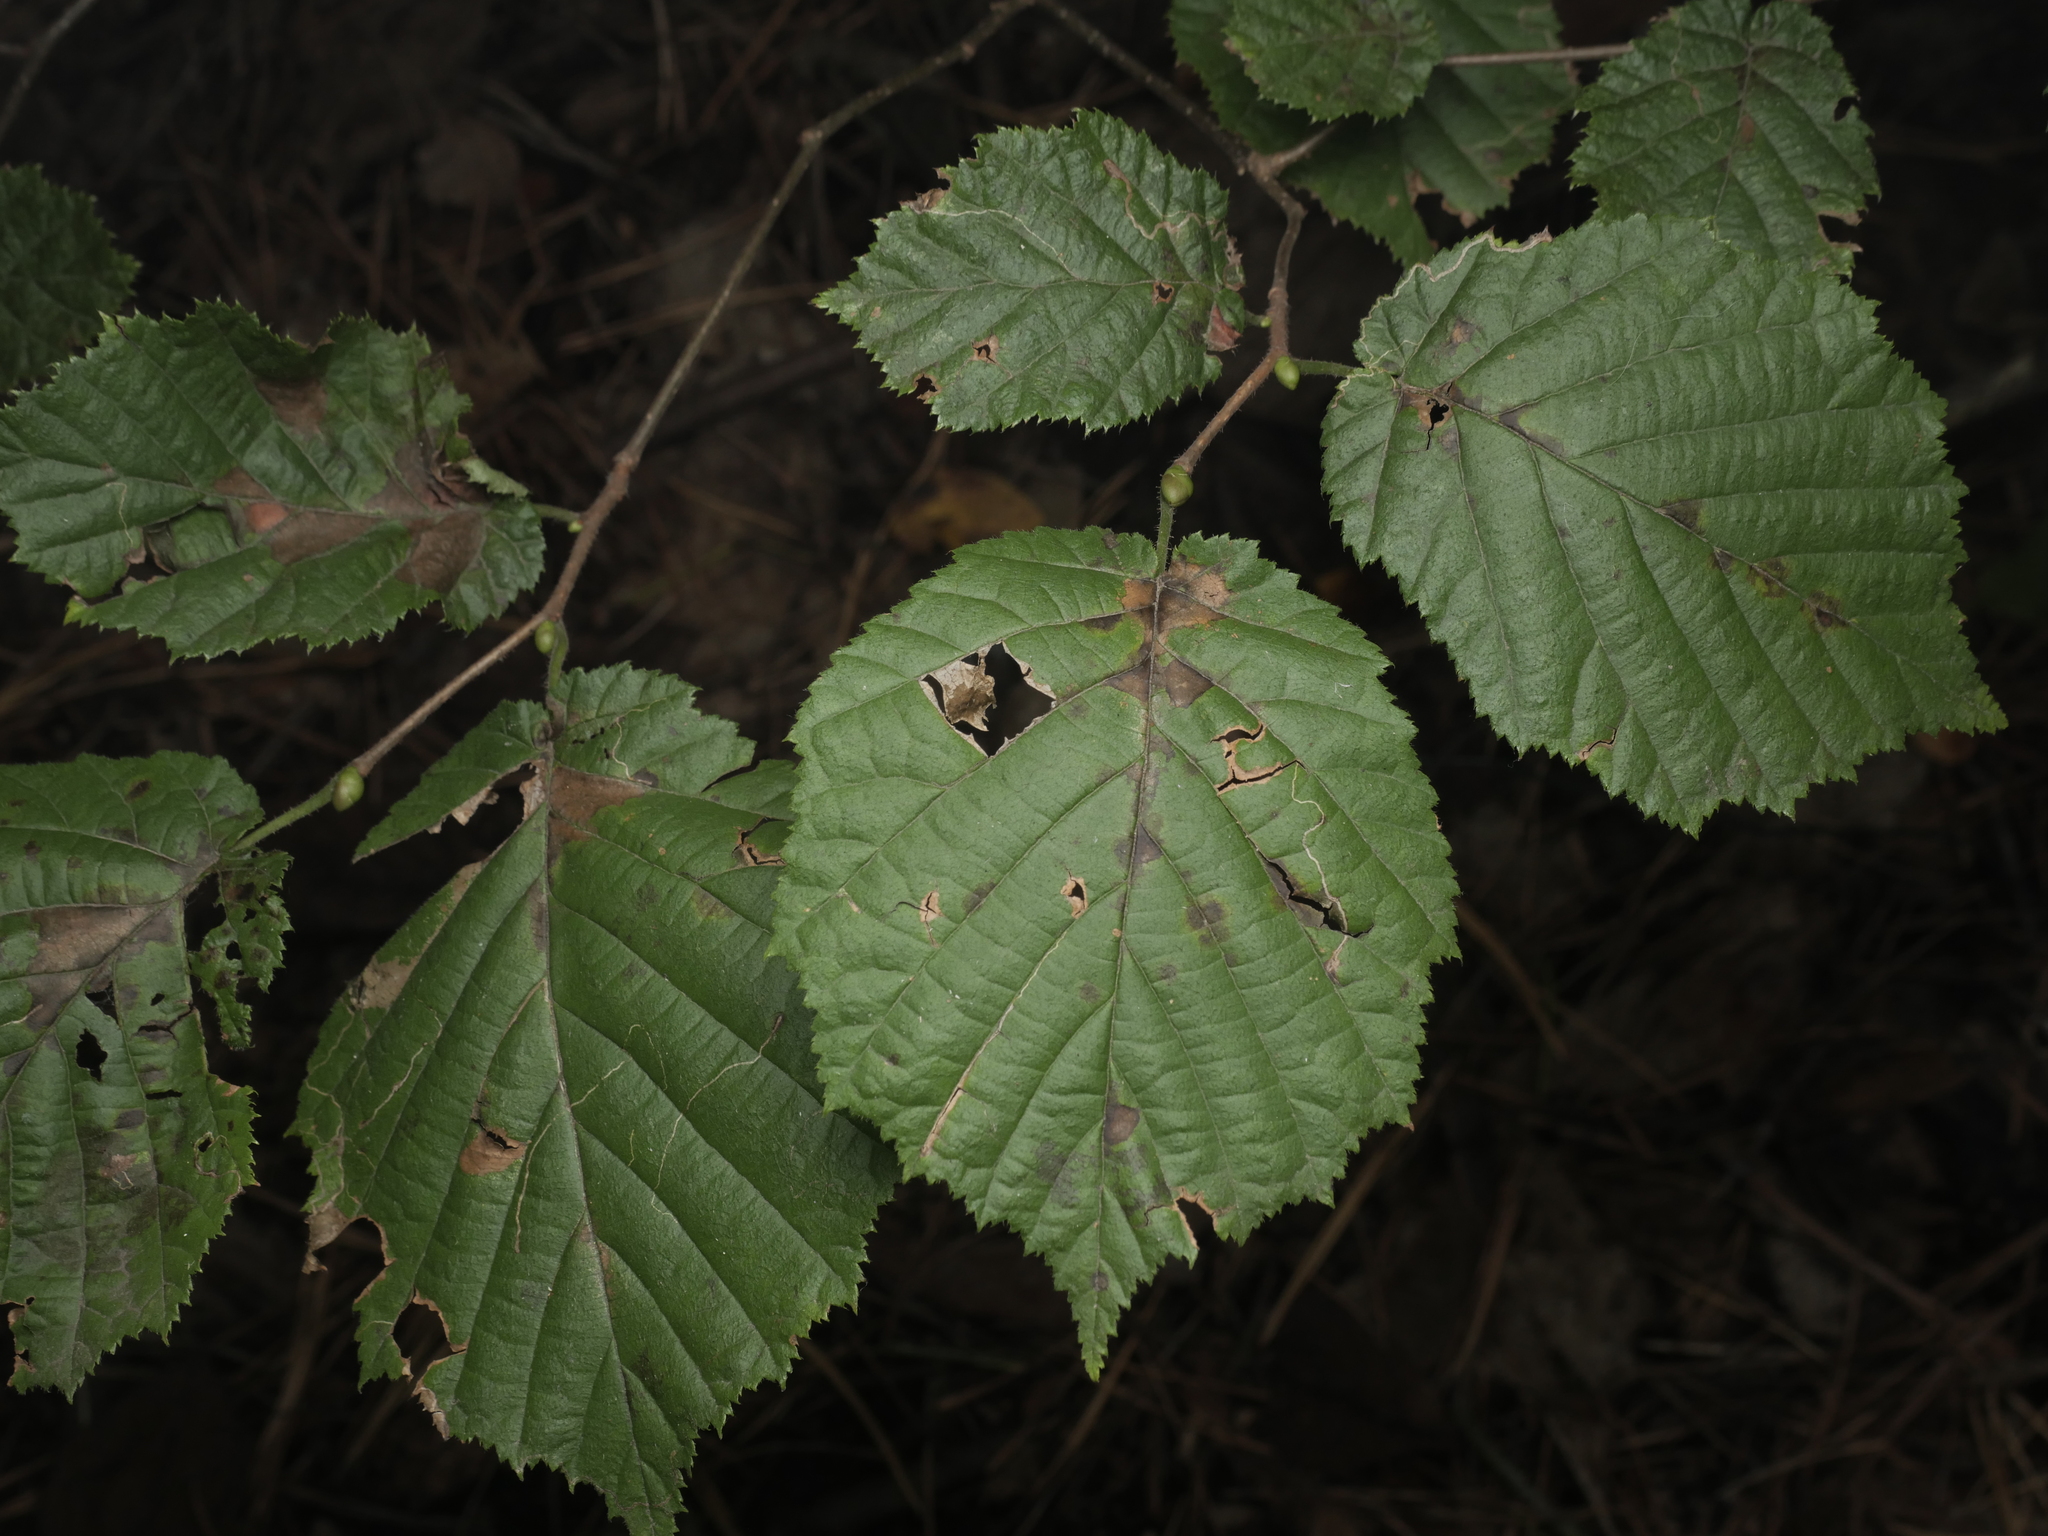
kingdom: Plantae
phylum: Tracheophyta
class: Magnoliopsida
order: Fagales
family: Betulaceae
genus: Corylus
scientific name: Corylus avellana
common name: European hazel
